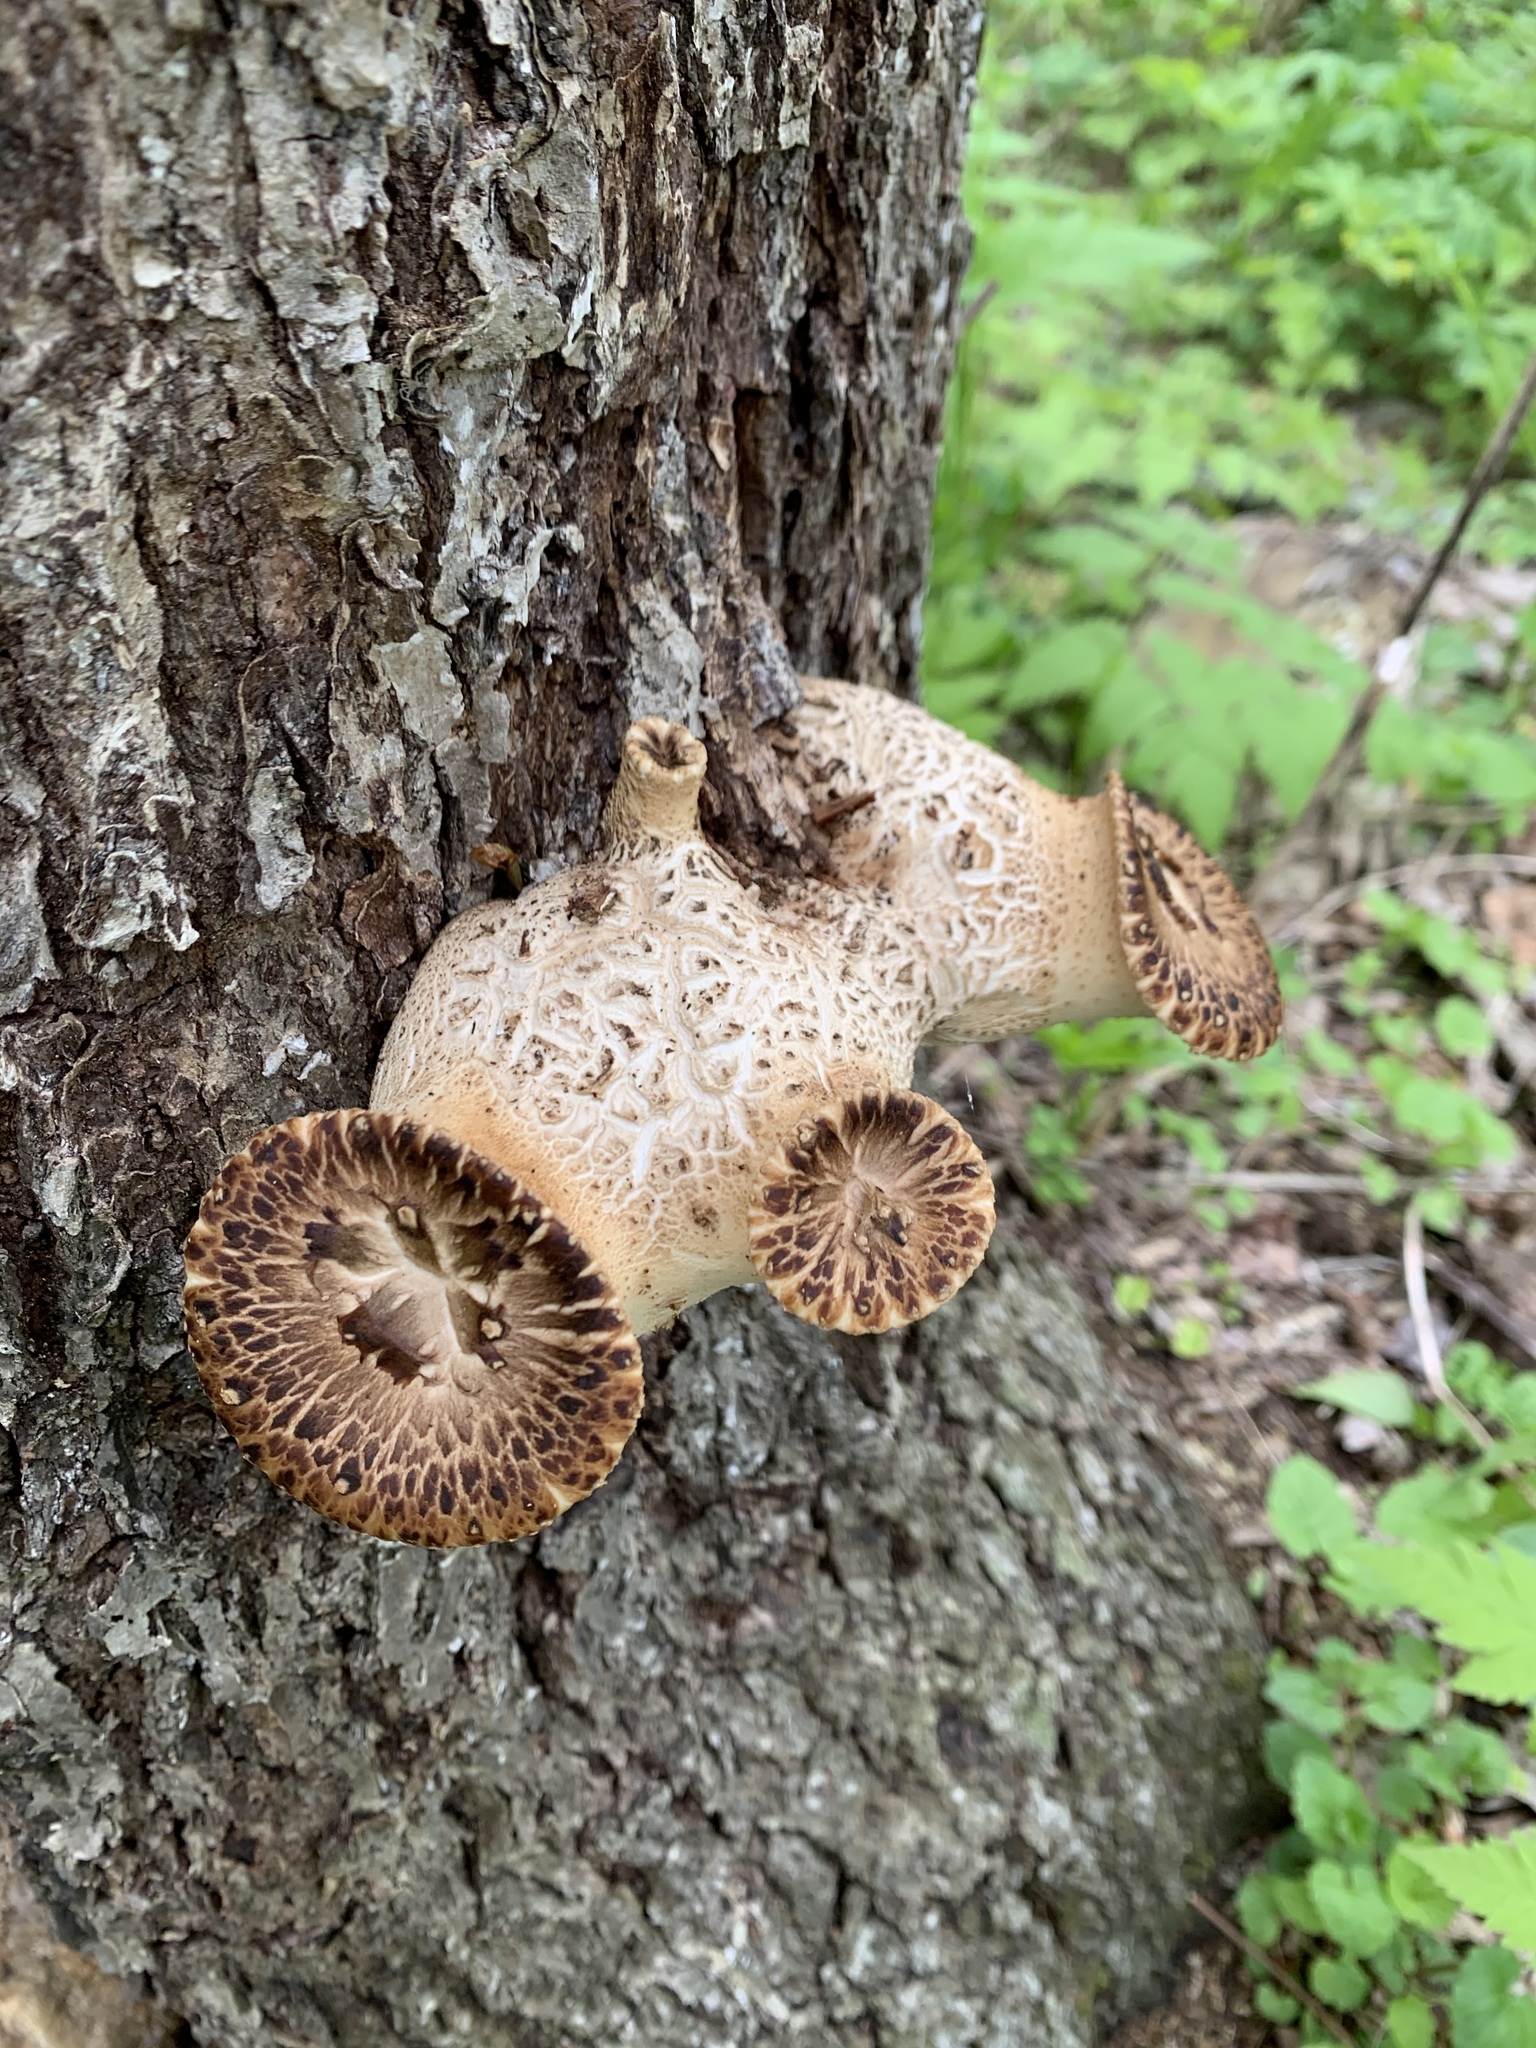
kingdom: Fungi
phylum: Basidiomycota
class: Agaricomycetes
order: Polyporales
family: Polyporaceae
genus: Cerioporus
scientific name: Cerioporus squamosus
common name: Dryad's saddle
